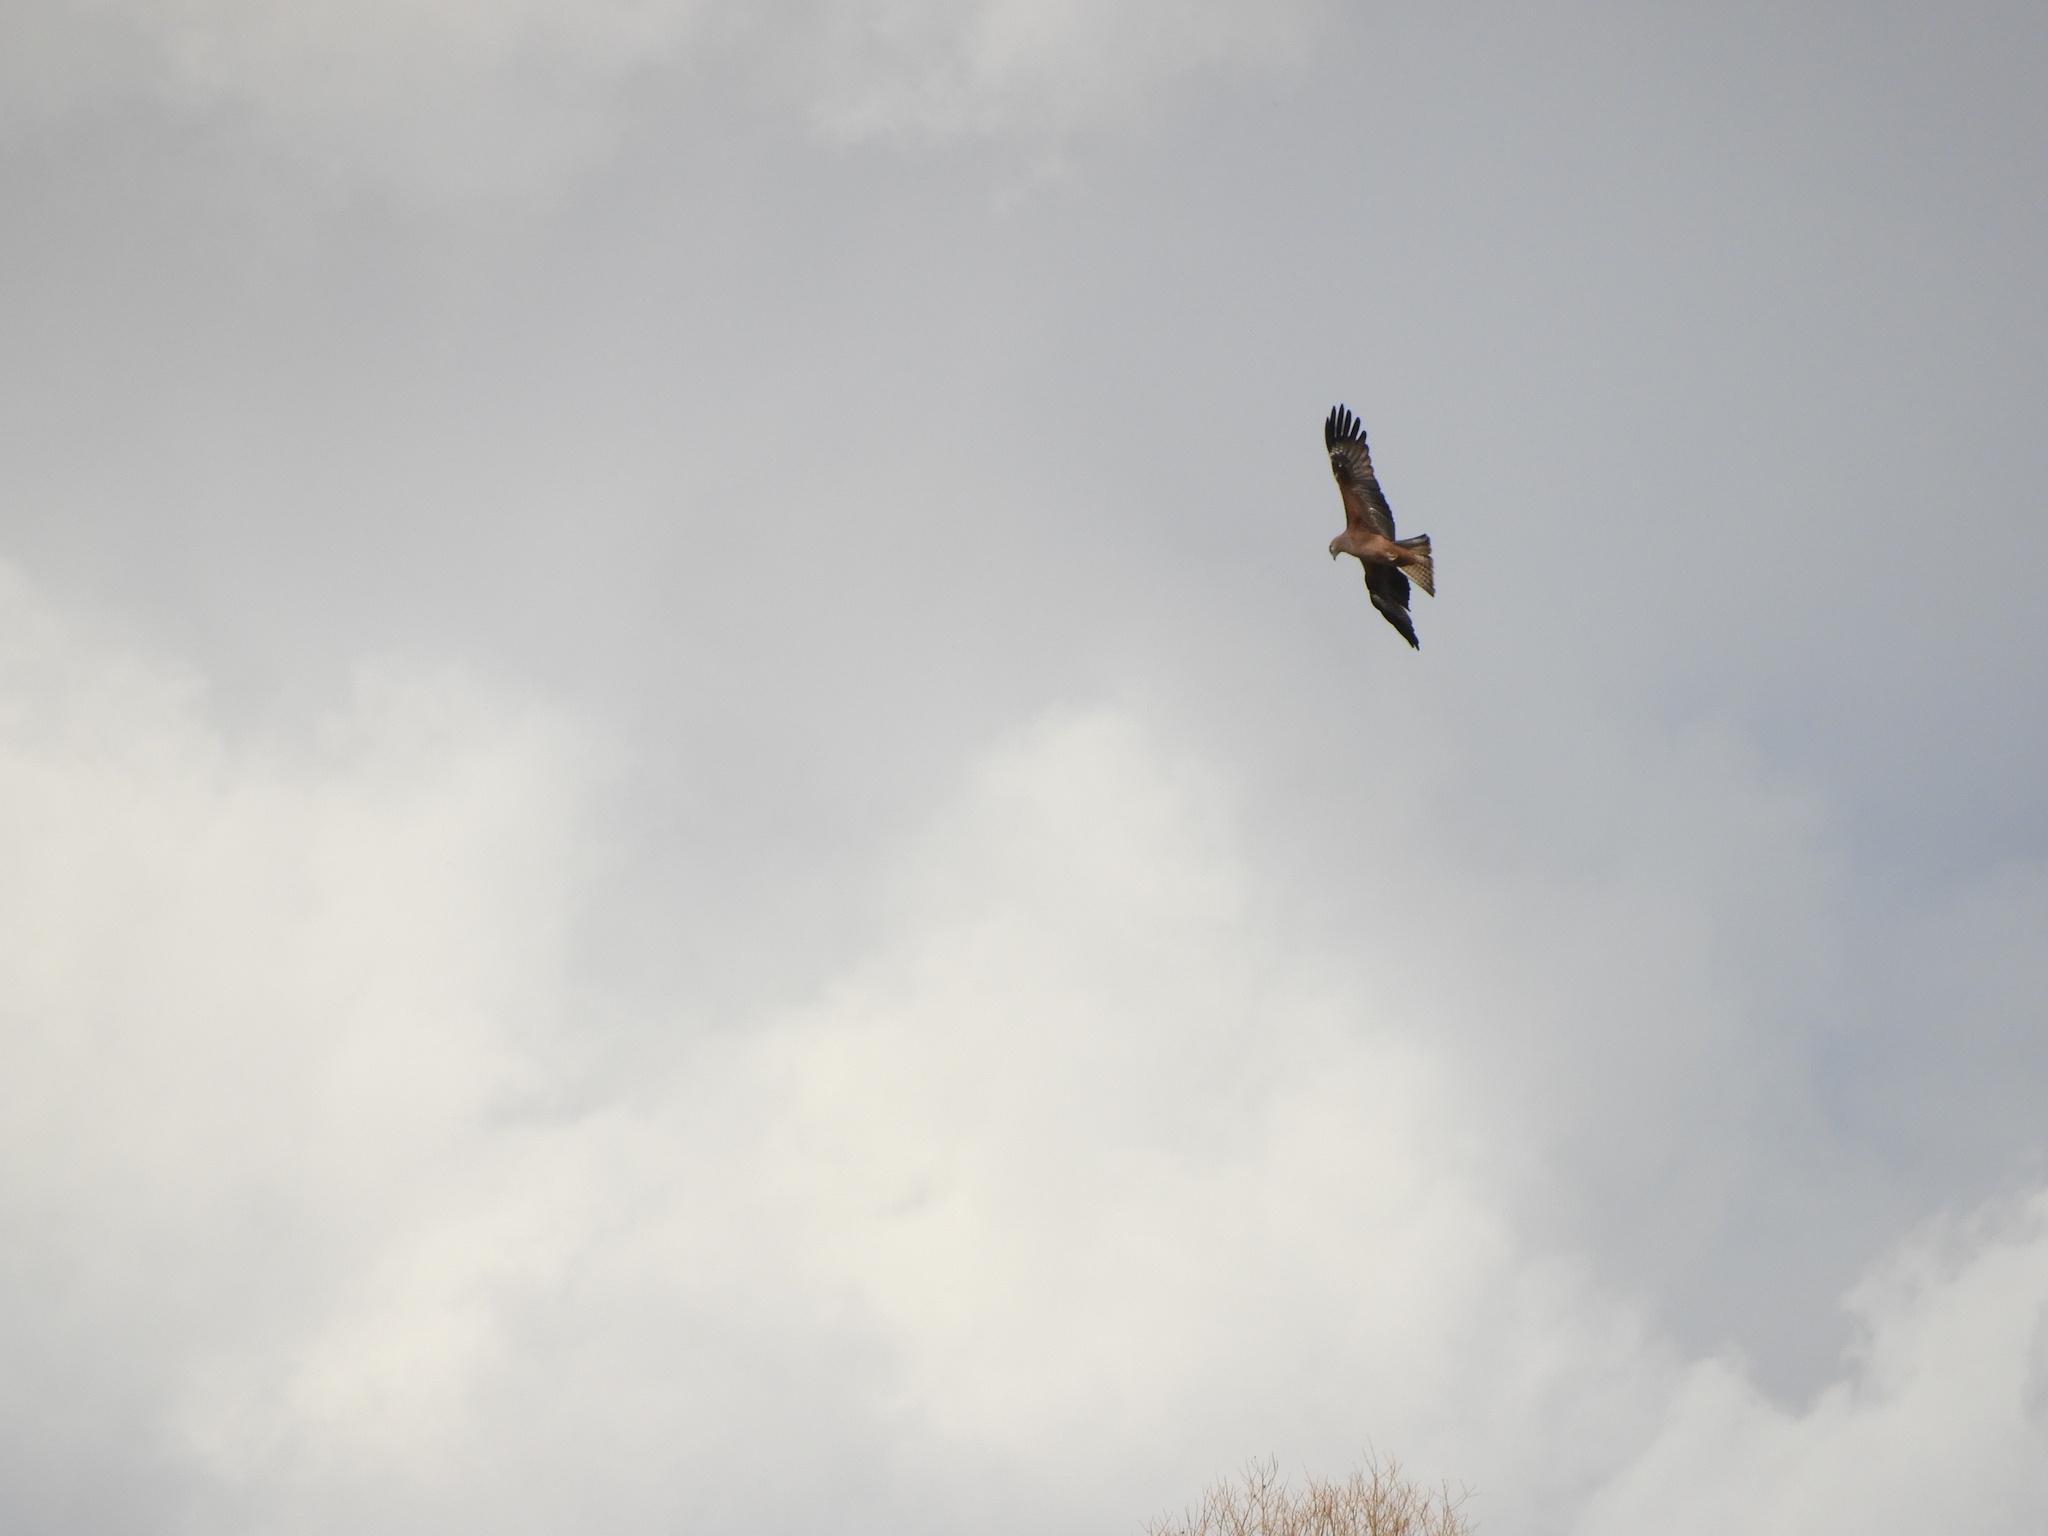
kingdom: Animalia
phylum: Chordata
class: Aves
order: Accipitriformes
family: Accipitridae
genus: Milvus
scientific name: Milvus migrans
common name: Black kite
